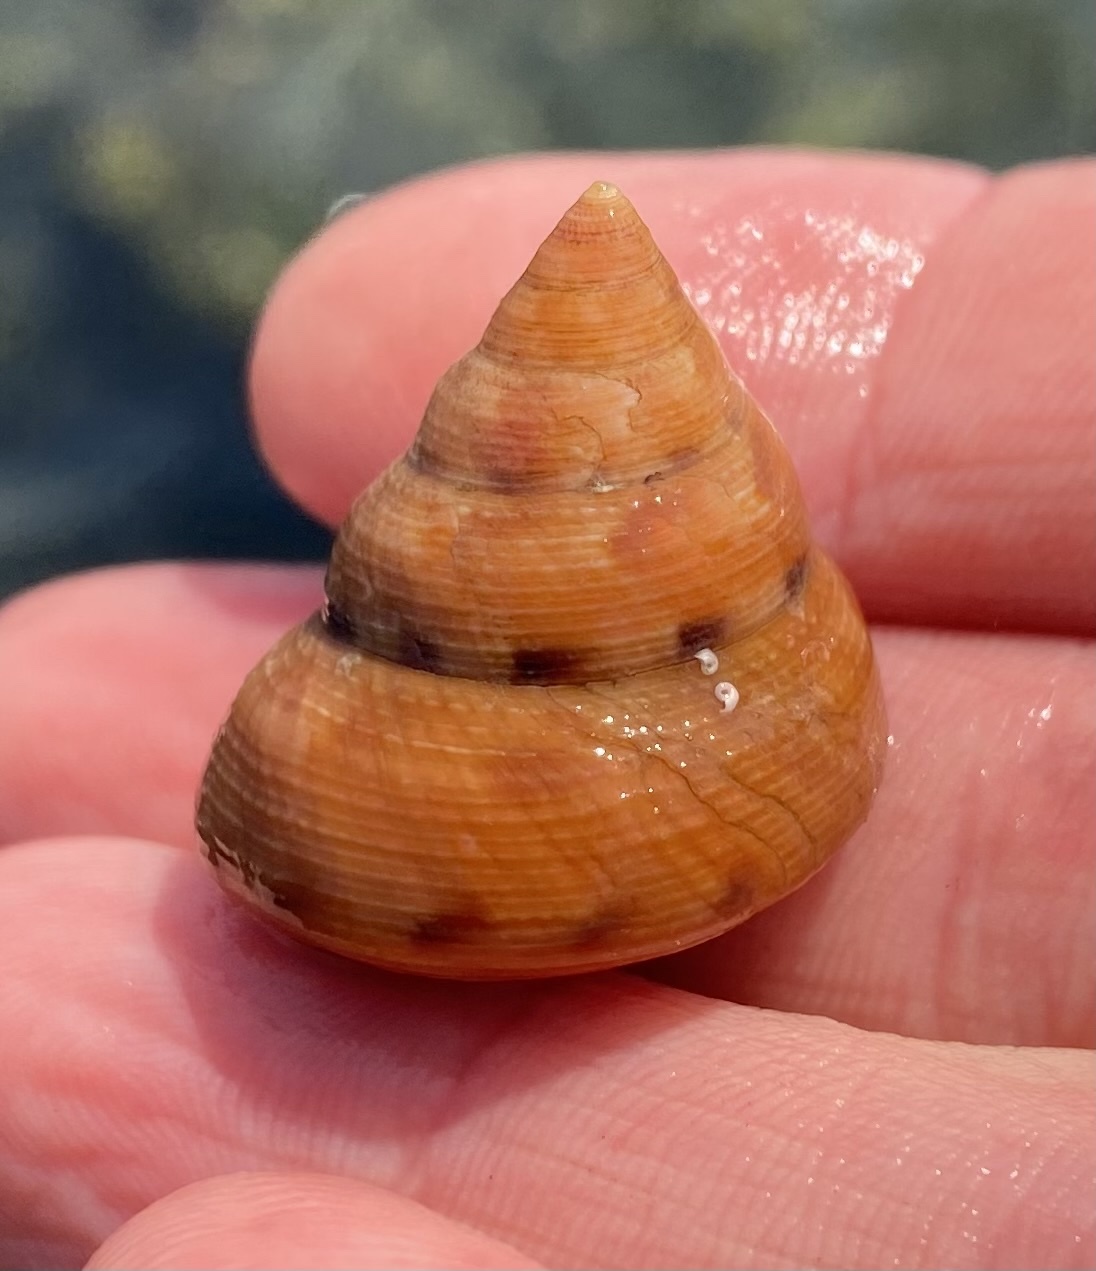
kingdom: Animalia
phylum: Mollusca
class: Gastropoda
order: Trochida
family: Calliostomatidae
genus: Calliostoma
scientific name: Calliostoma gloriosum
